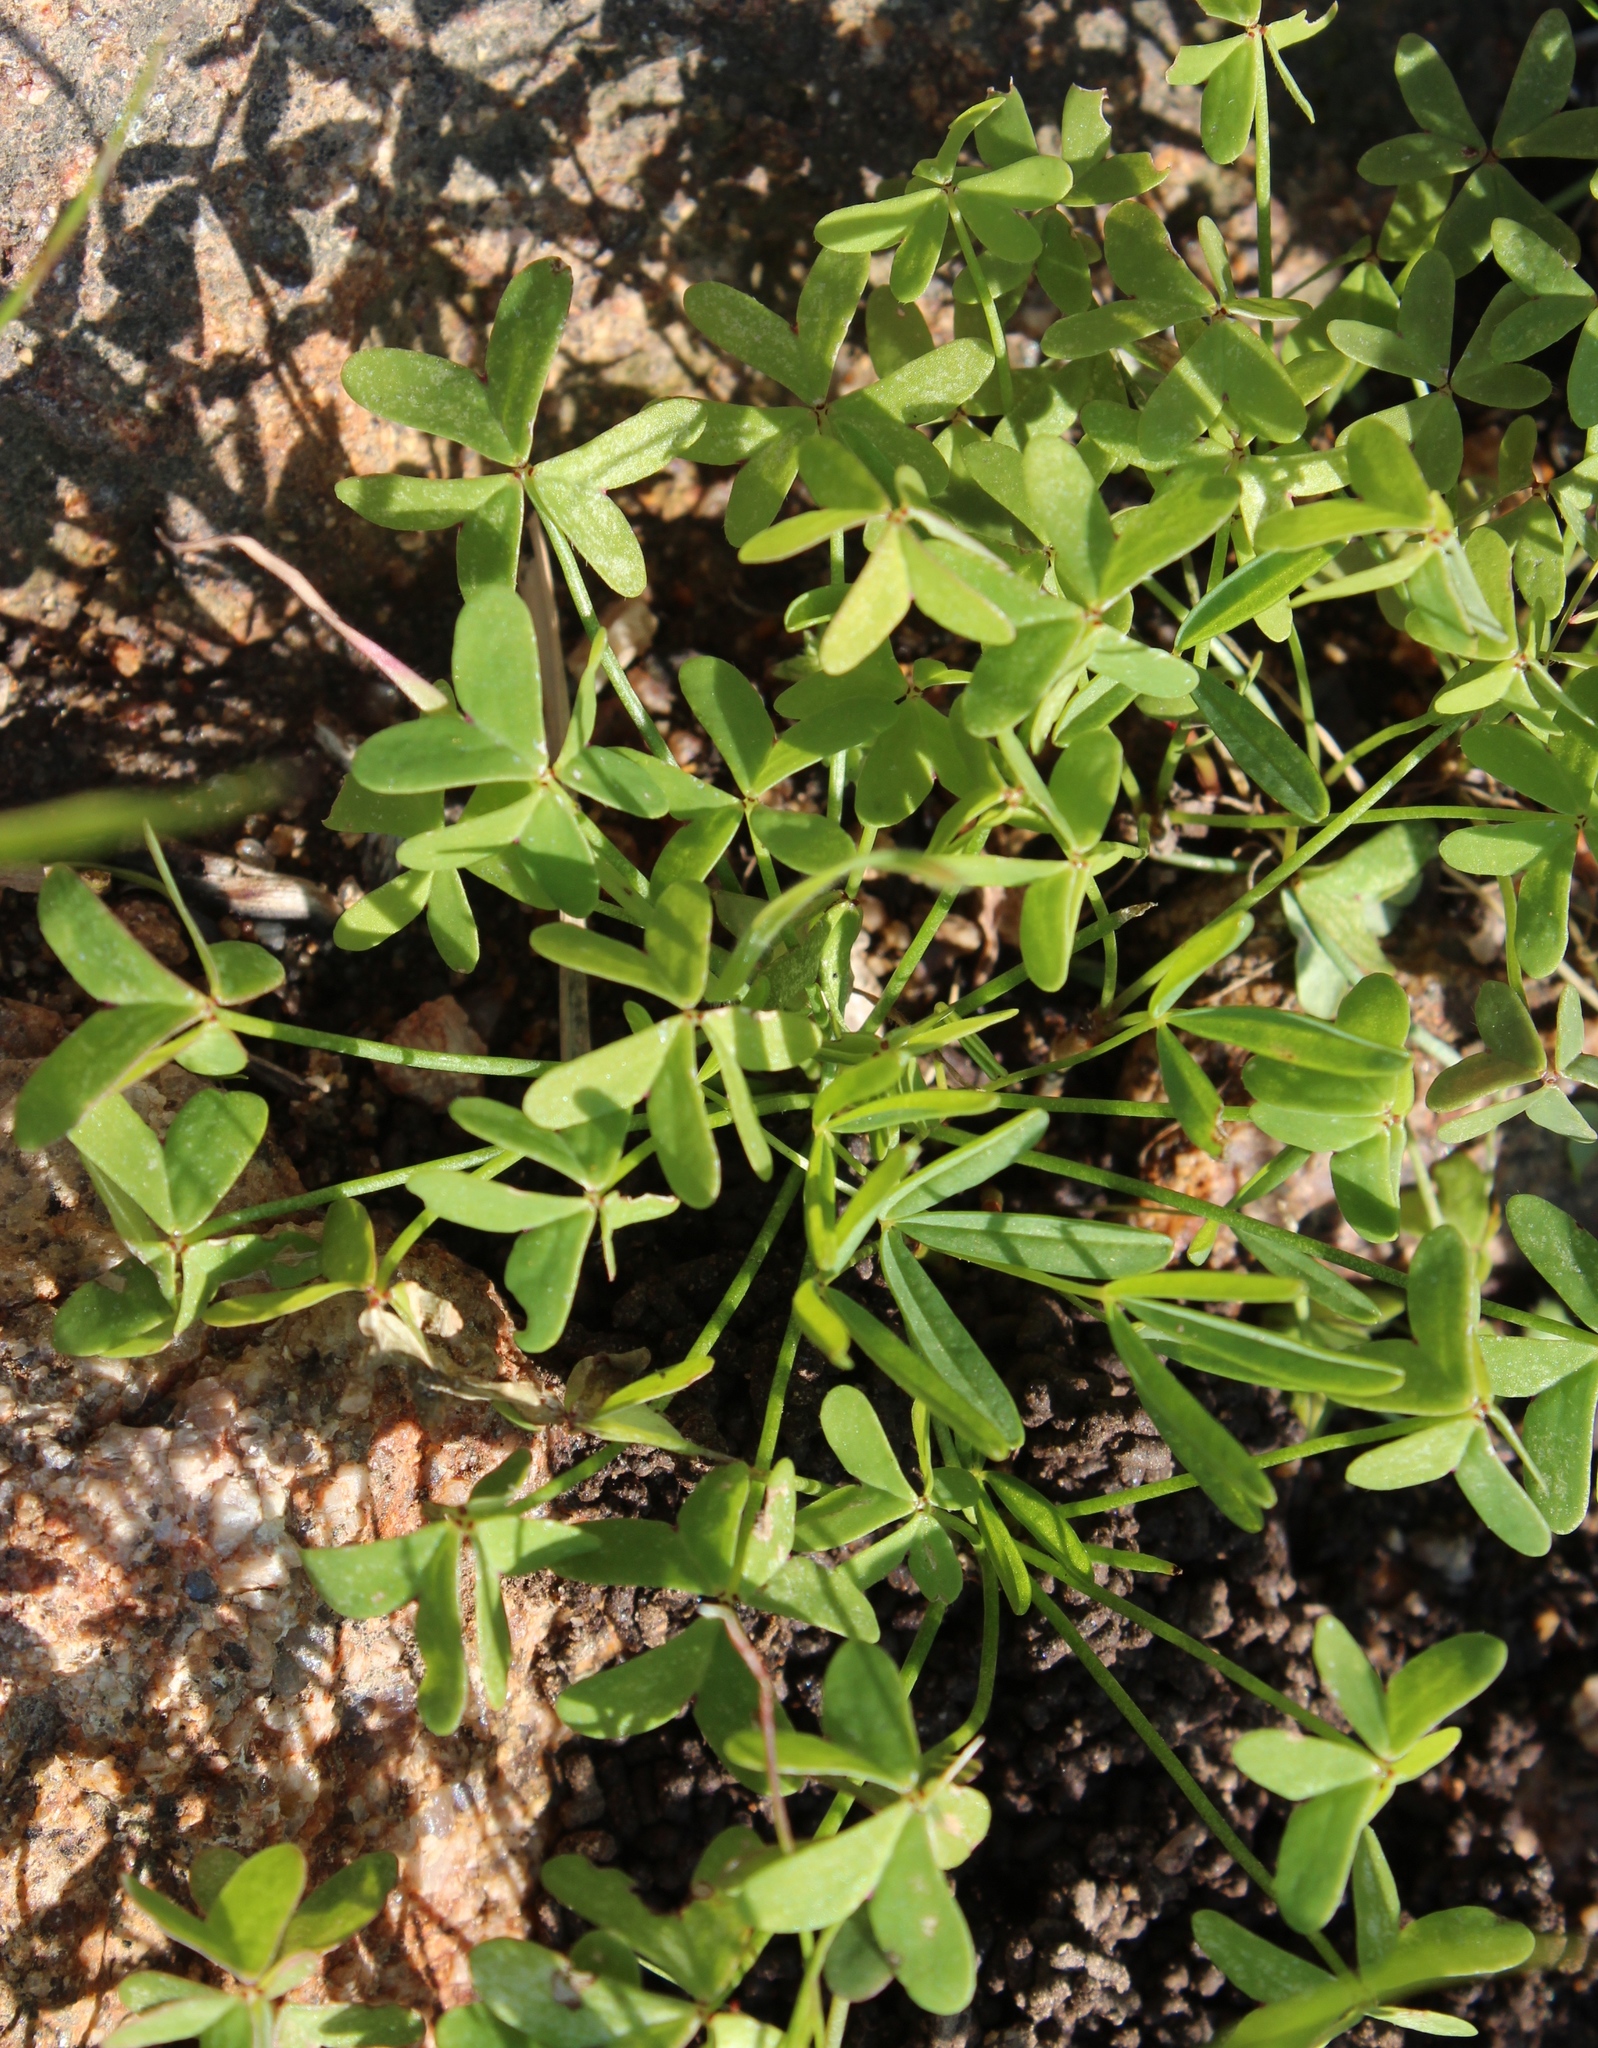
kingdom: Plantae
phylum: Tracheophyta
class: Magnoliopsida
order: Oxalidales
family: Oxalidaceae
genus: Oxalis
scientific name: Oxalis pes-caprae
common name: Bermuda-buttercup
